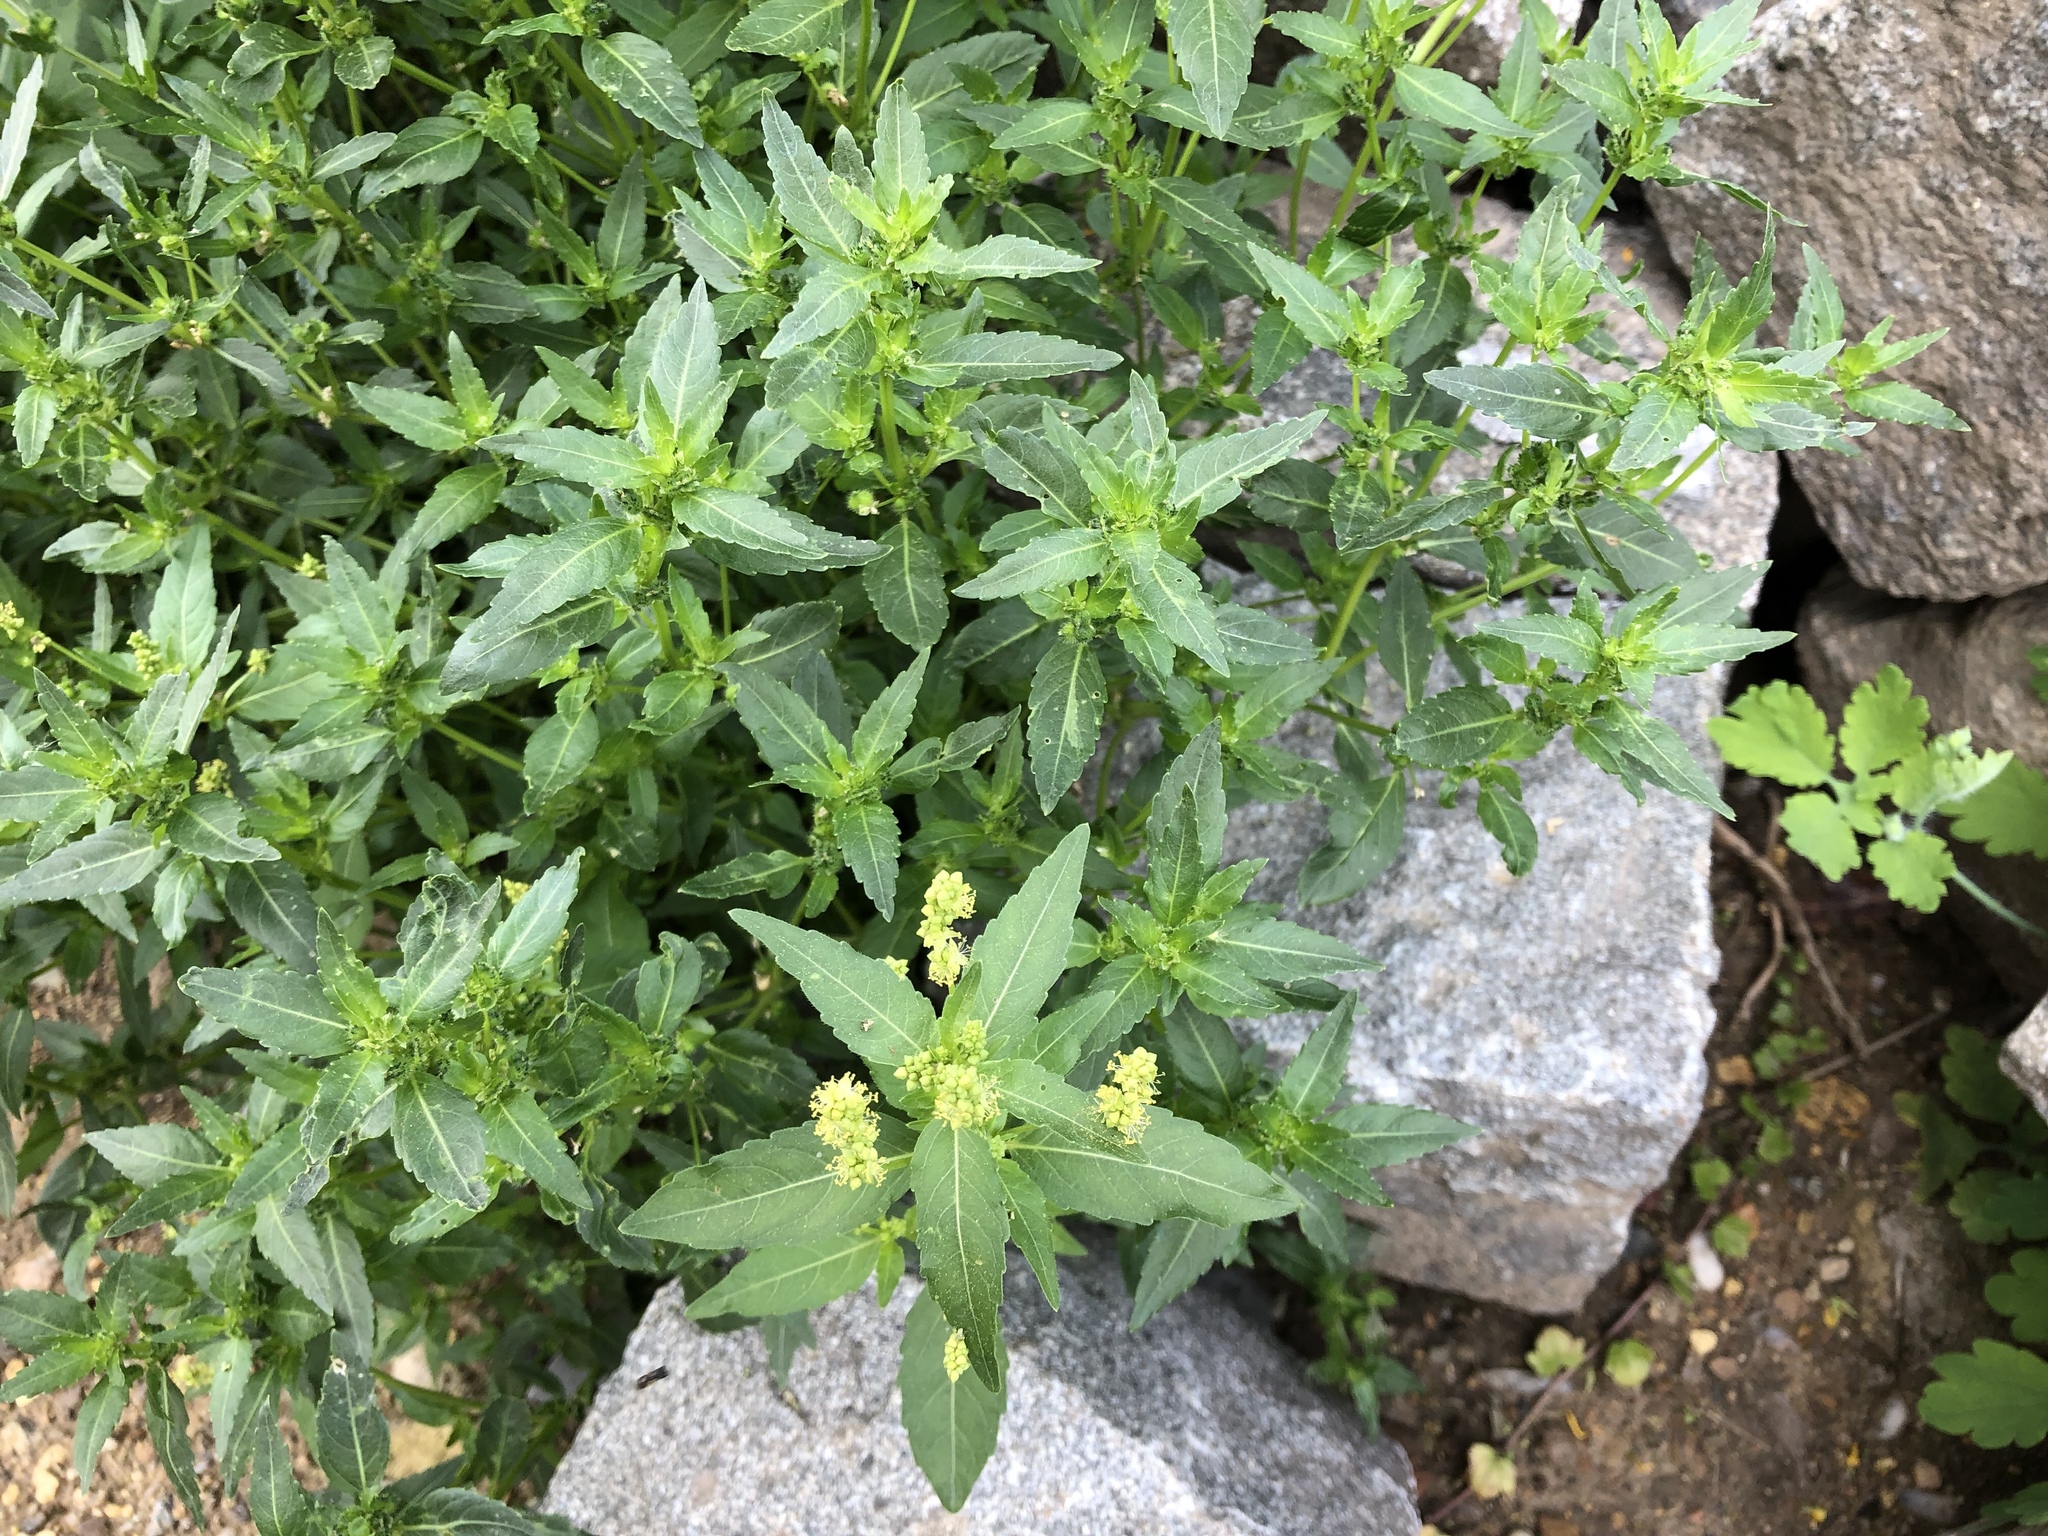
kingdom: Plantae
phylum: Tracheophyta
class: Magnoliopsida
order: Malpighiales
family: Euphorbiaceae
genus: Mercurialis
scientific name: Mercurialis annua
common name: Annual mercury
